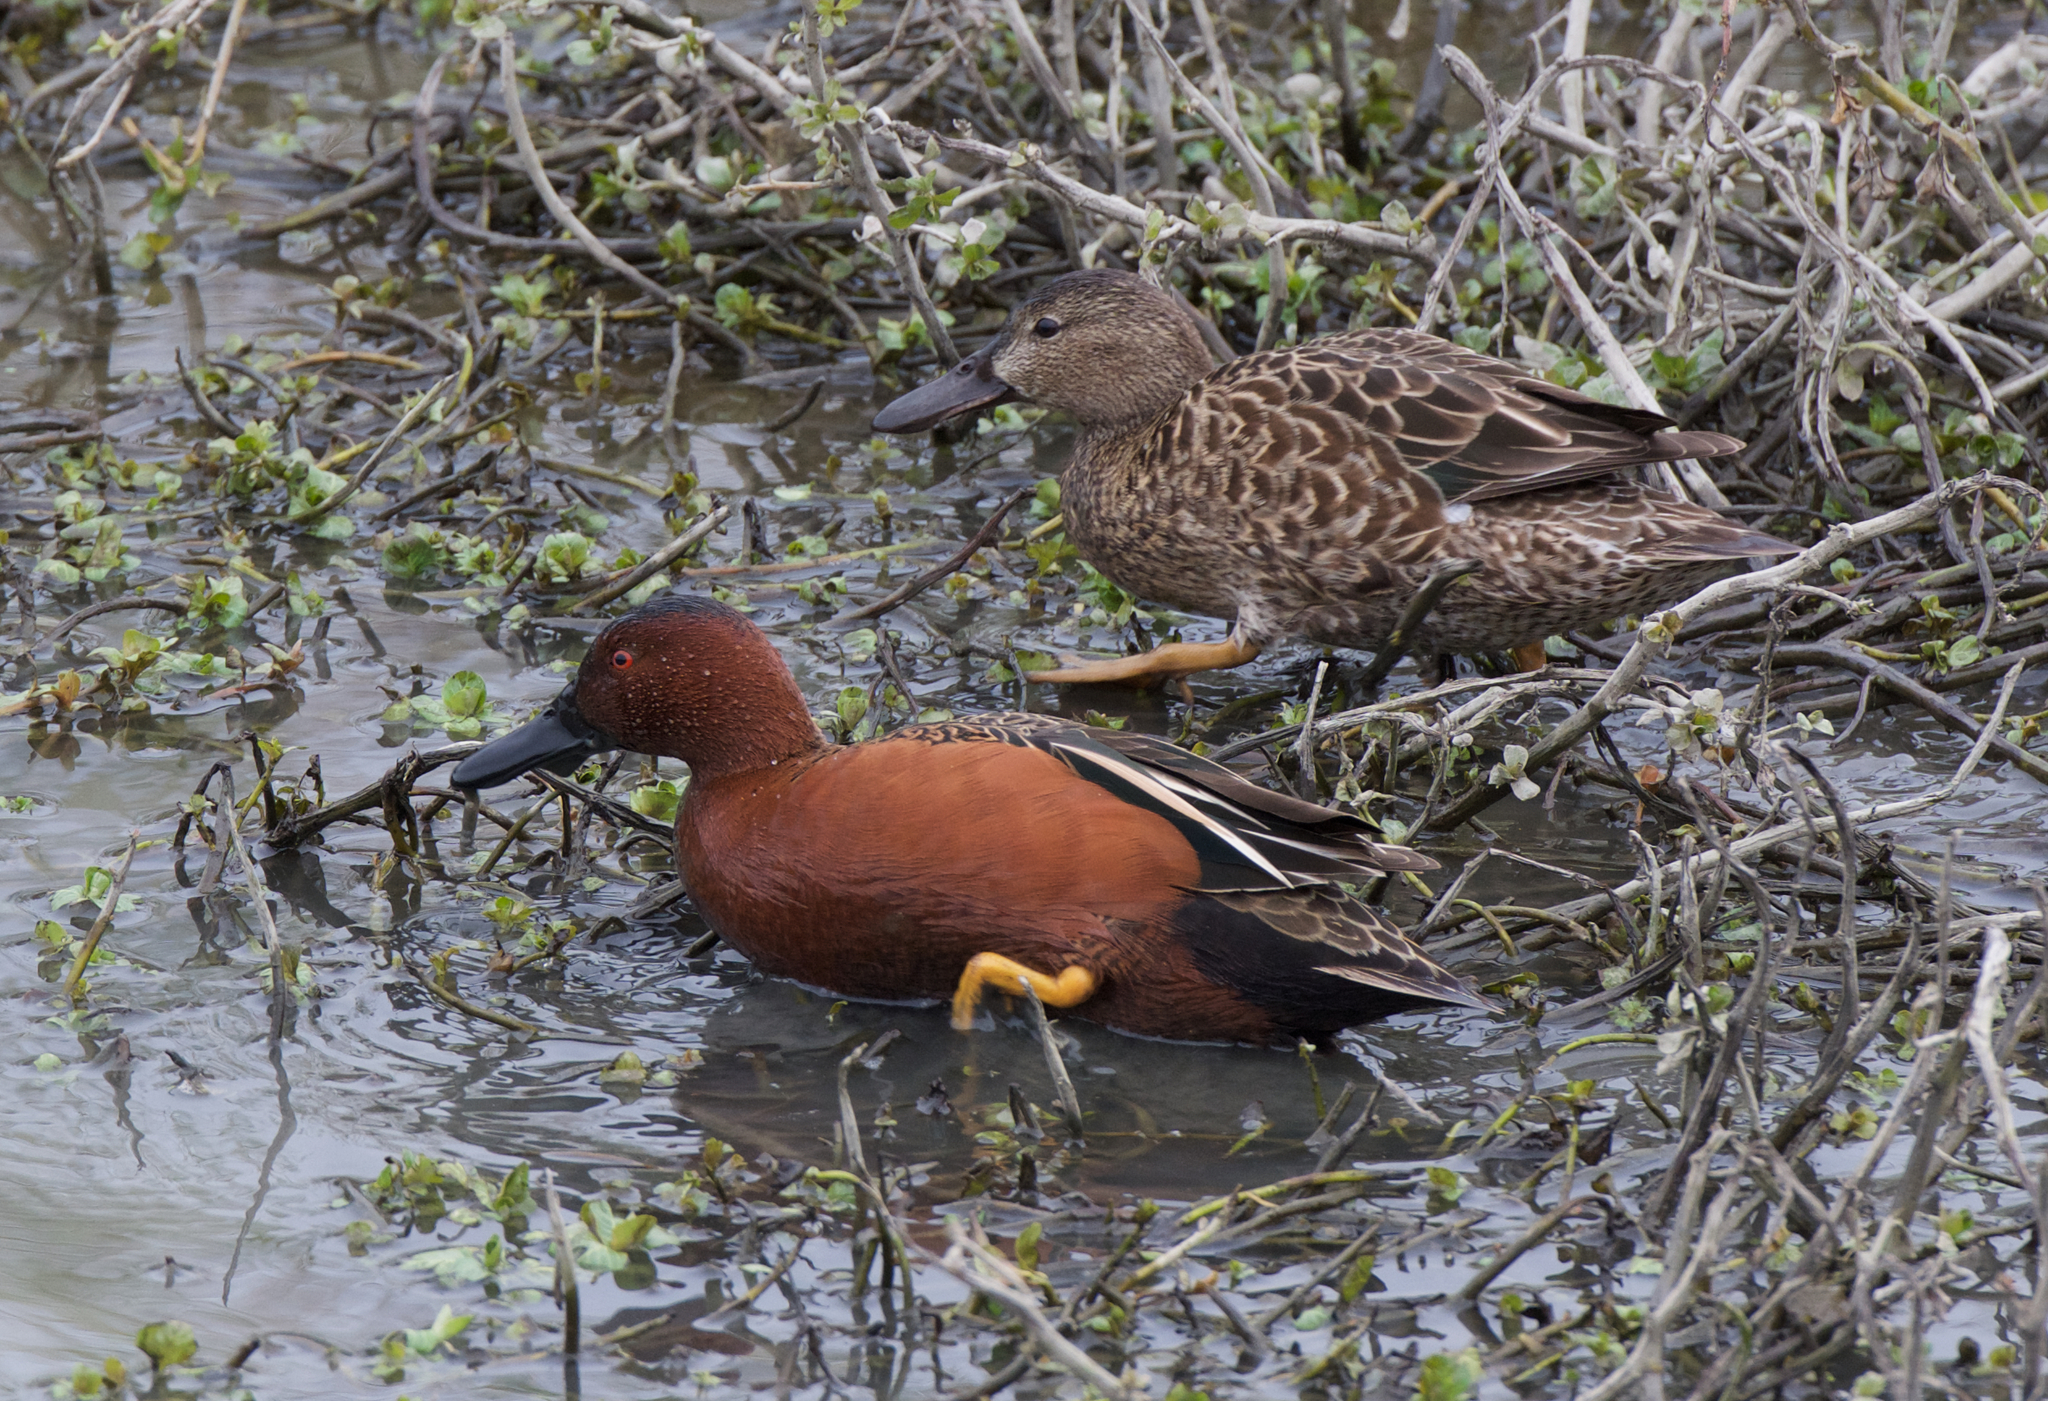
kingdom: Animalia
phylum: Chordata
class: Aves
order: Anseriformes
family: Anatidae
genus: Spatula
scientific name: Spatula cyanoptera
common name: Cinnamon teal
